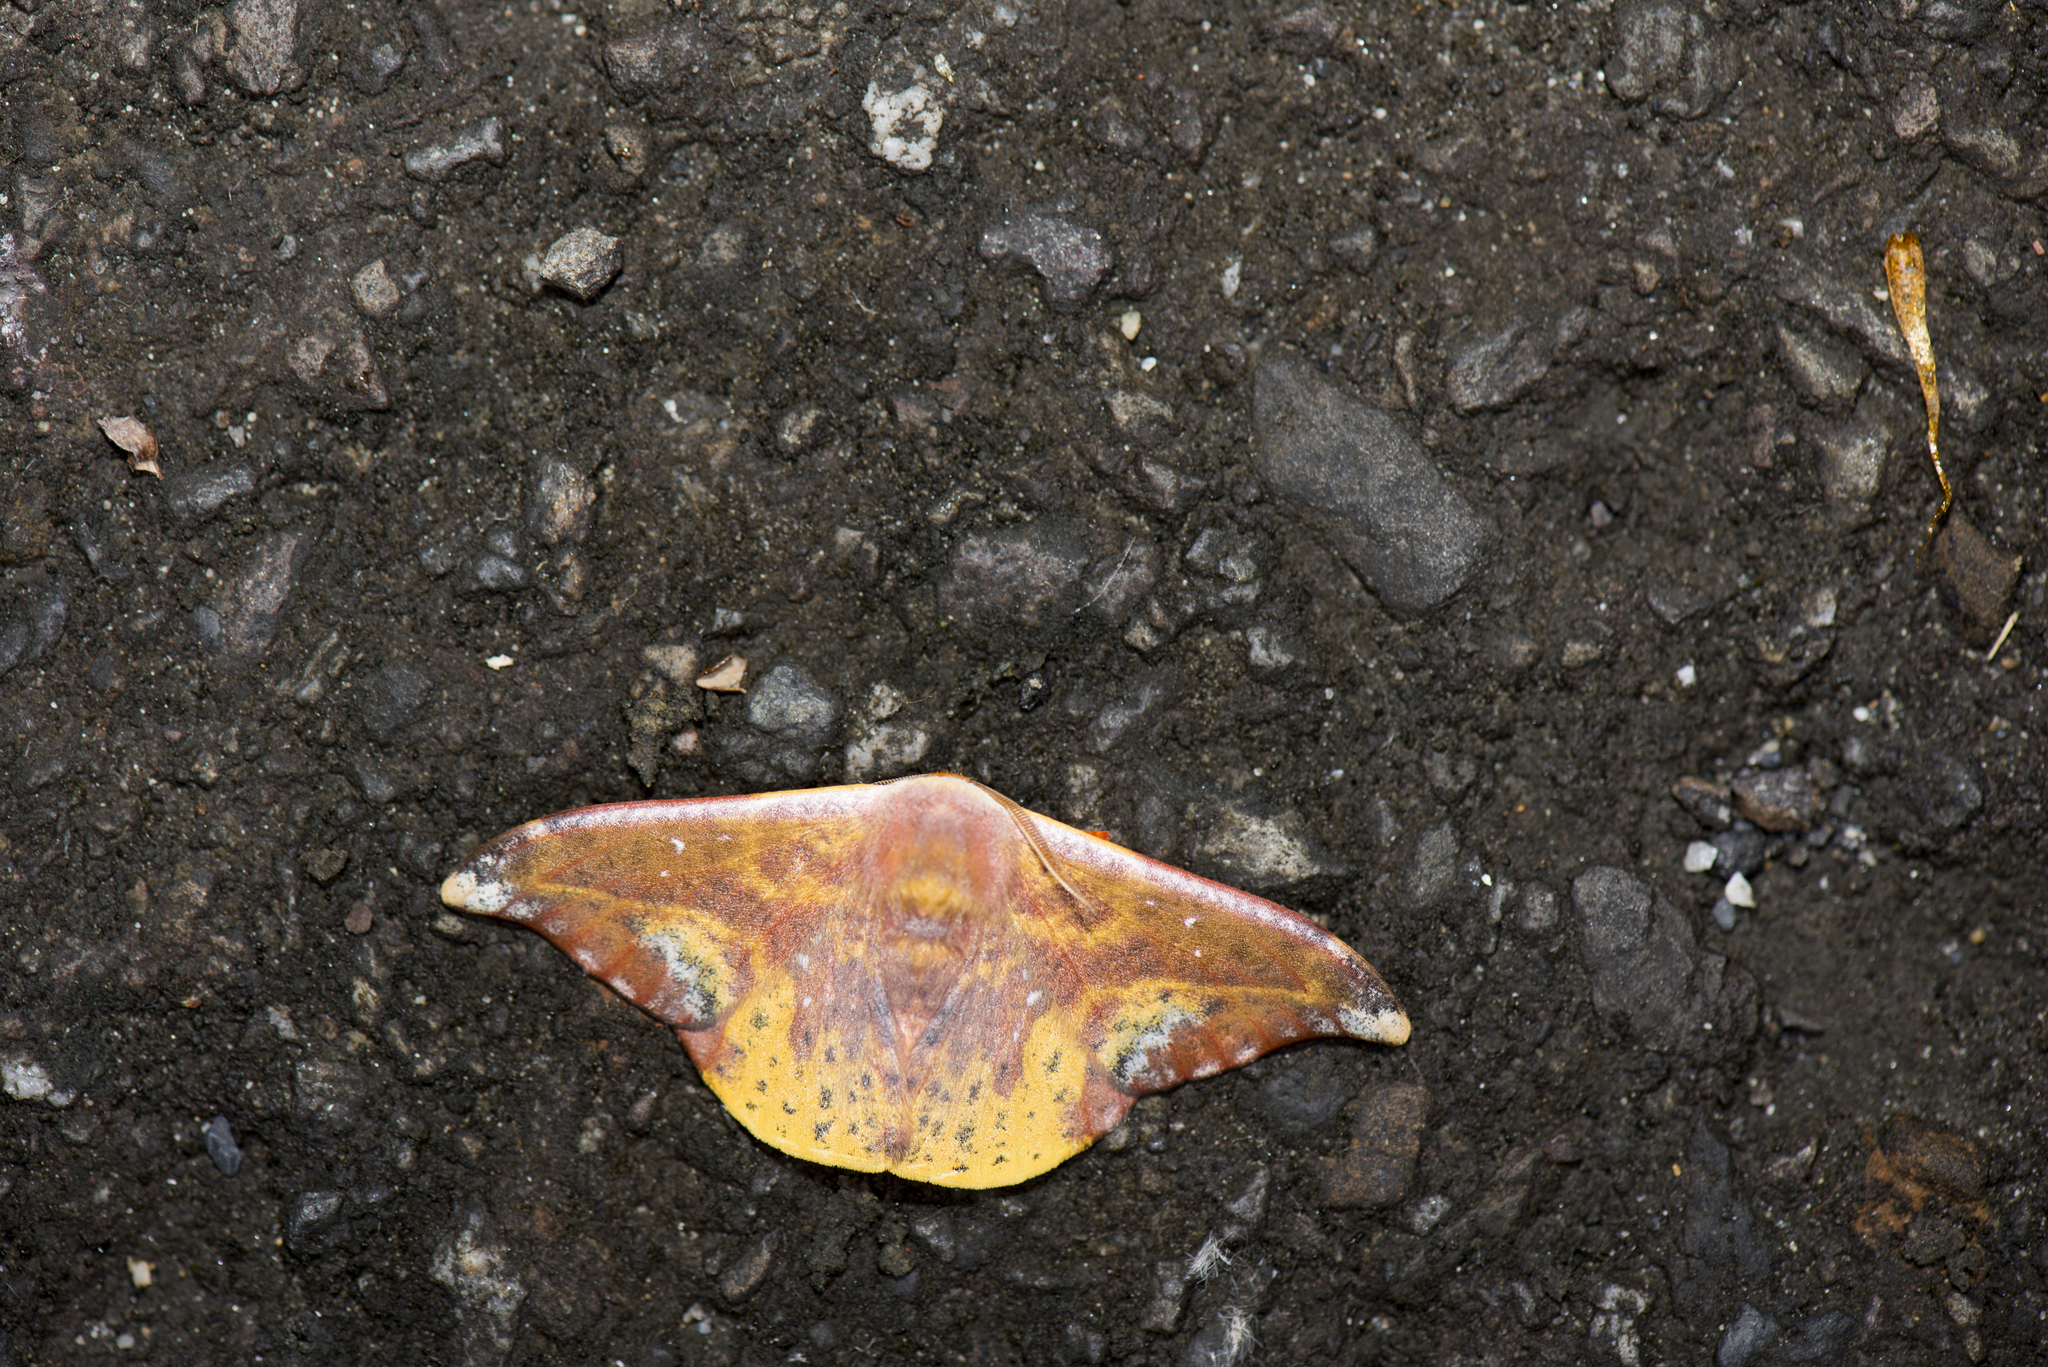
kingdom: Animalia
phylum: Arthropoda
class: Insecta
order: Lepidoptera
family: Drepanidae
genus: Oreta
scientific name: Oreta fuscopurpurea
